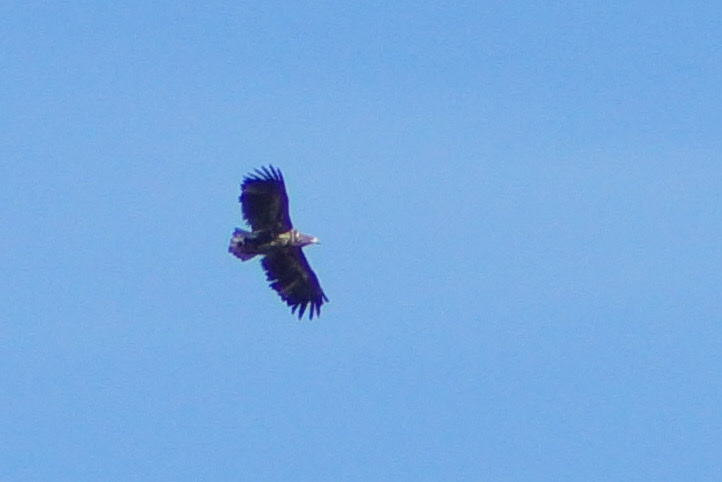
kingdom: Animalia
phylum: Chordata
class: Aves
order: Accipitriformes
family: Accipitridae
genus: Haliaeetus
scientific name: Haliaeetus albicilla
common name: White-tailed eagle
